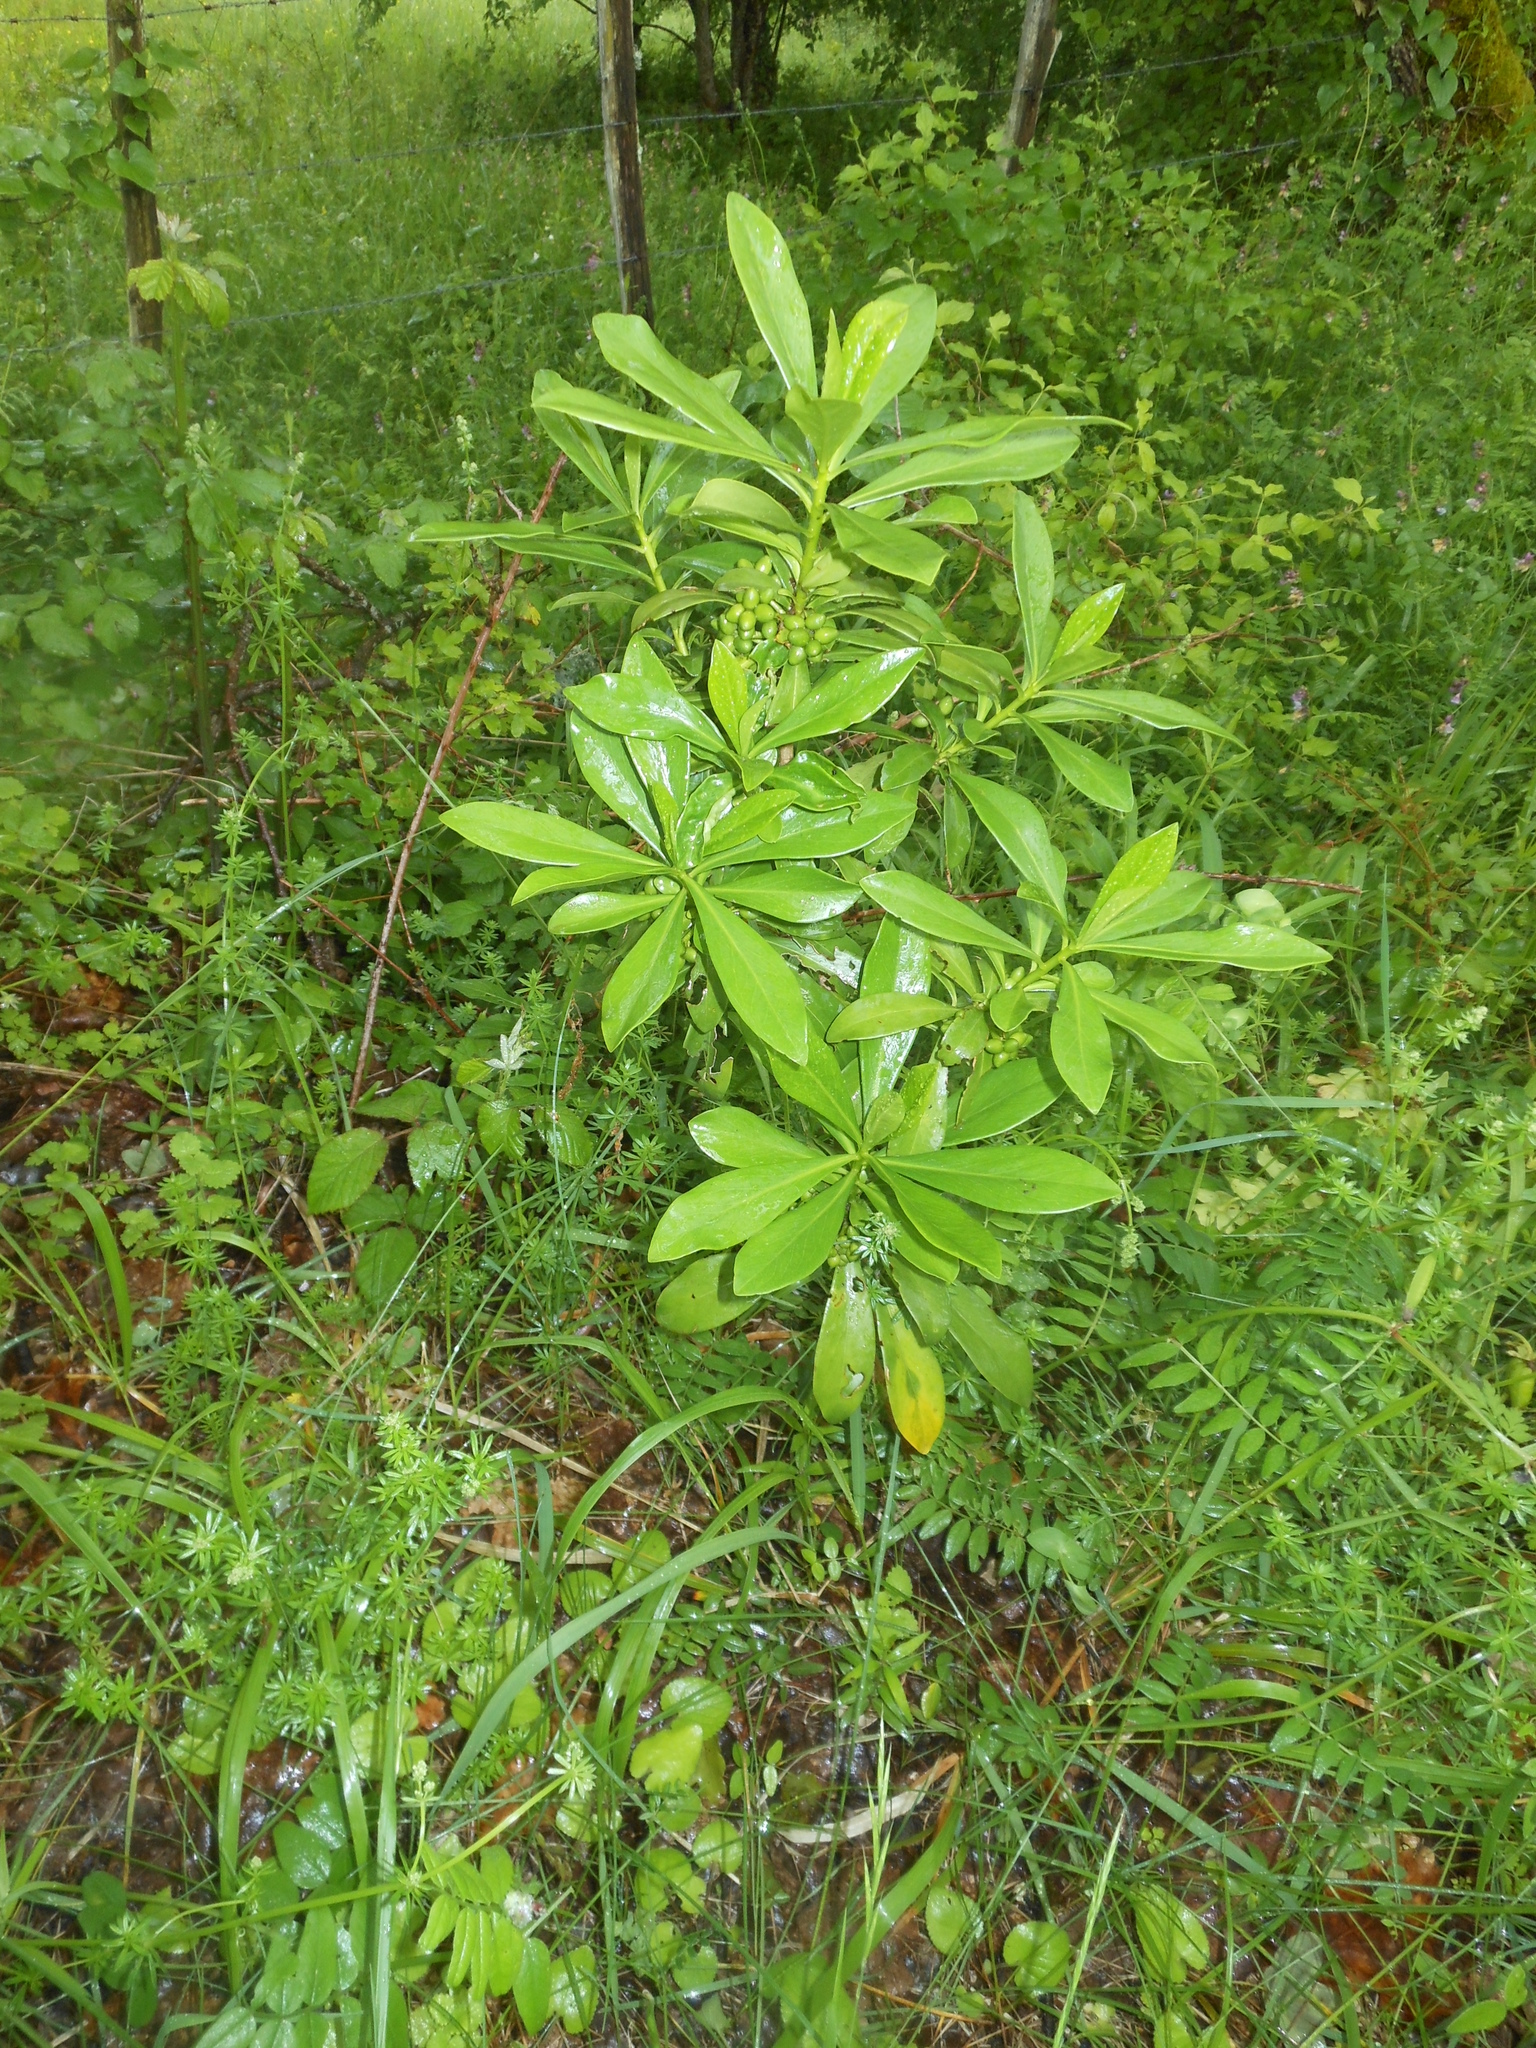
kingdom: Plantae
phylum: Tracheophyta
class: Magnoliopsida
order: Malvales
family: Thymelaeaceae
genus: Daphne
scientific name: Daphne laureola
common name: Spurge-laurel
